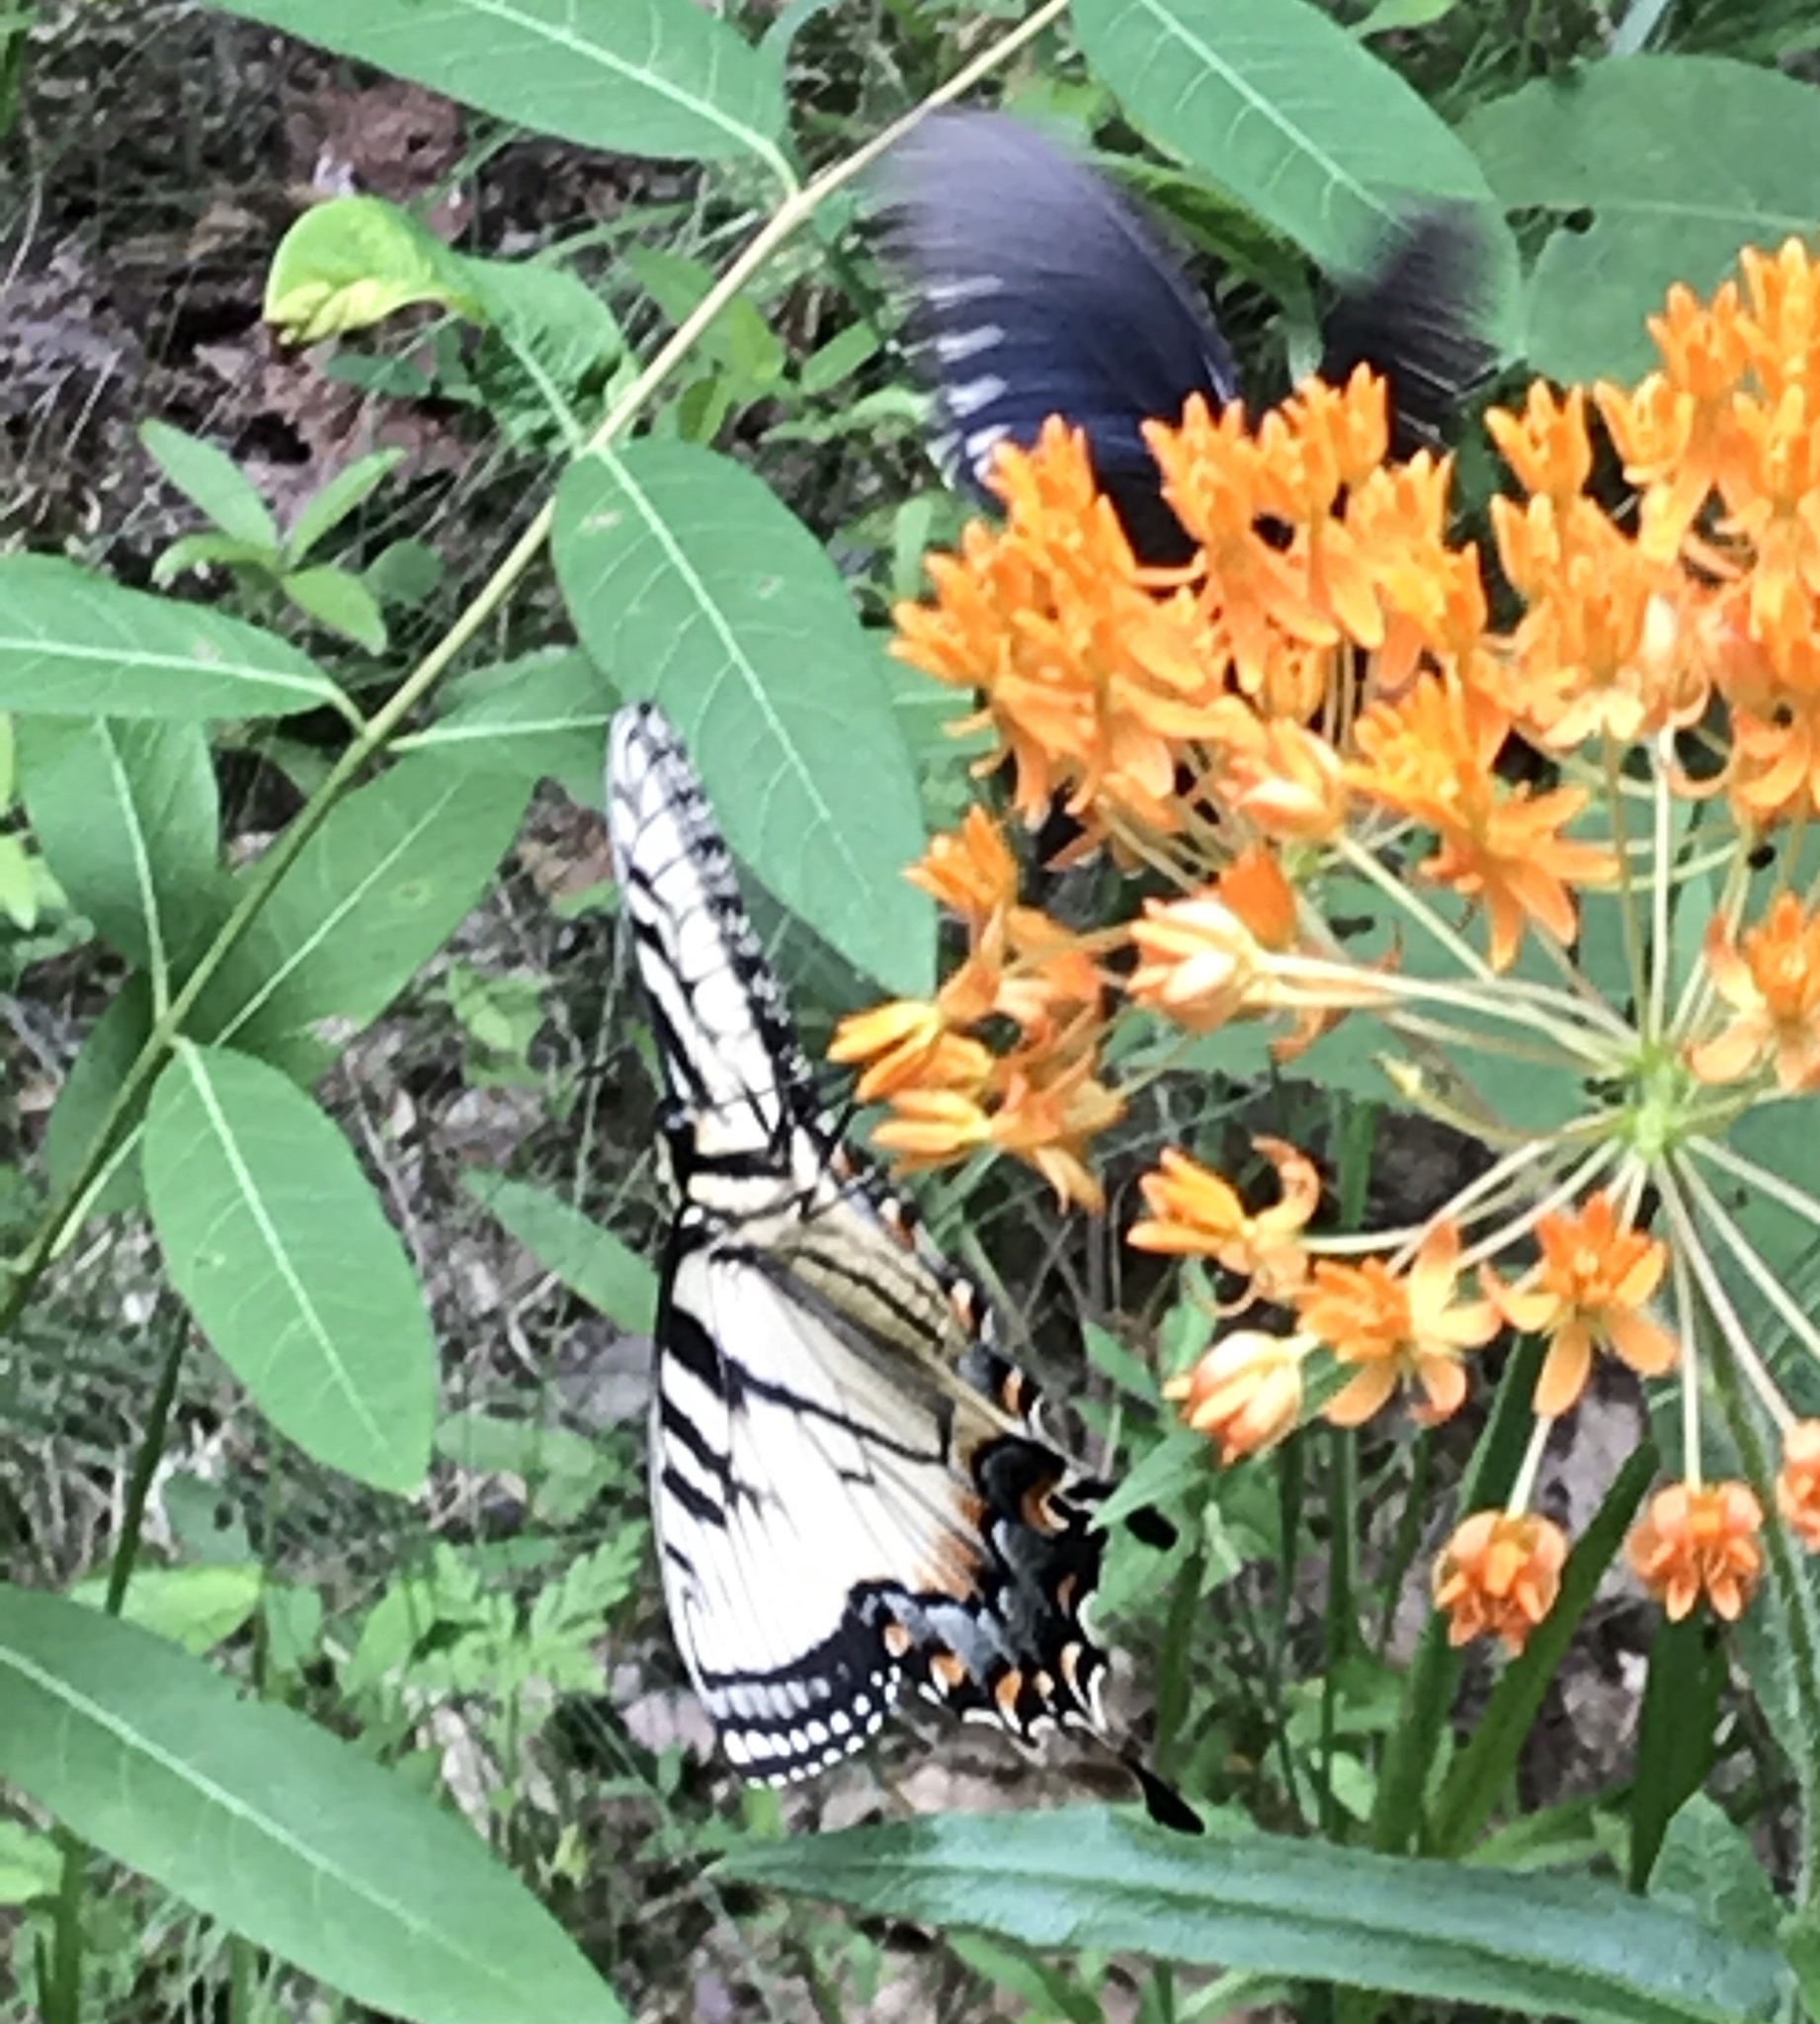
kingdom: Animalia
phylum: Arthropoda
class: Insecta
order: Lepidoptera
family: Papilionidae
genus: Papilio
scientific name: Papilio glaucus
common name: Tiger swallowtail
